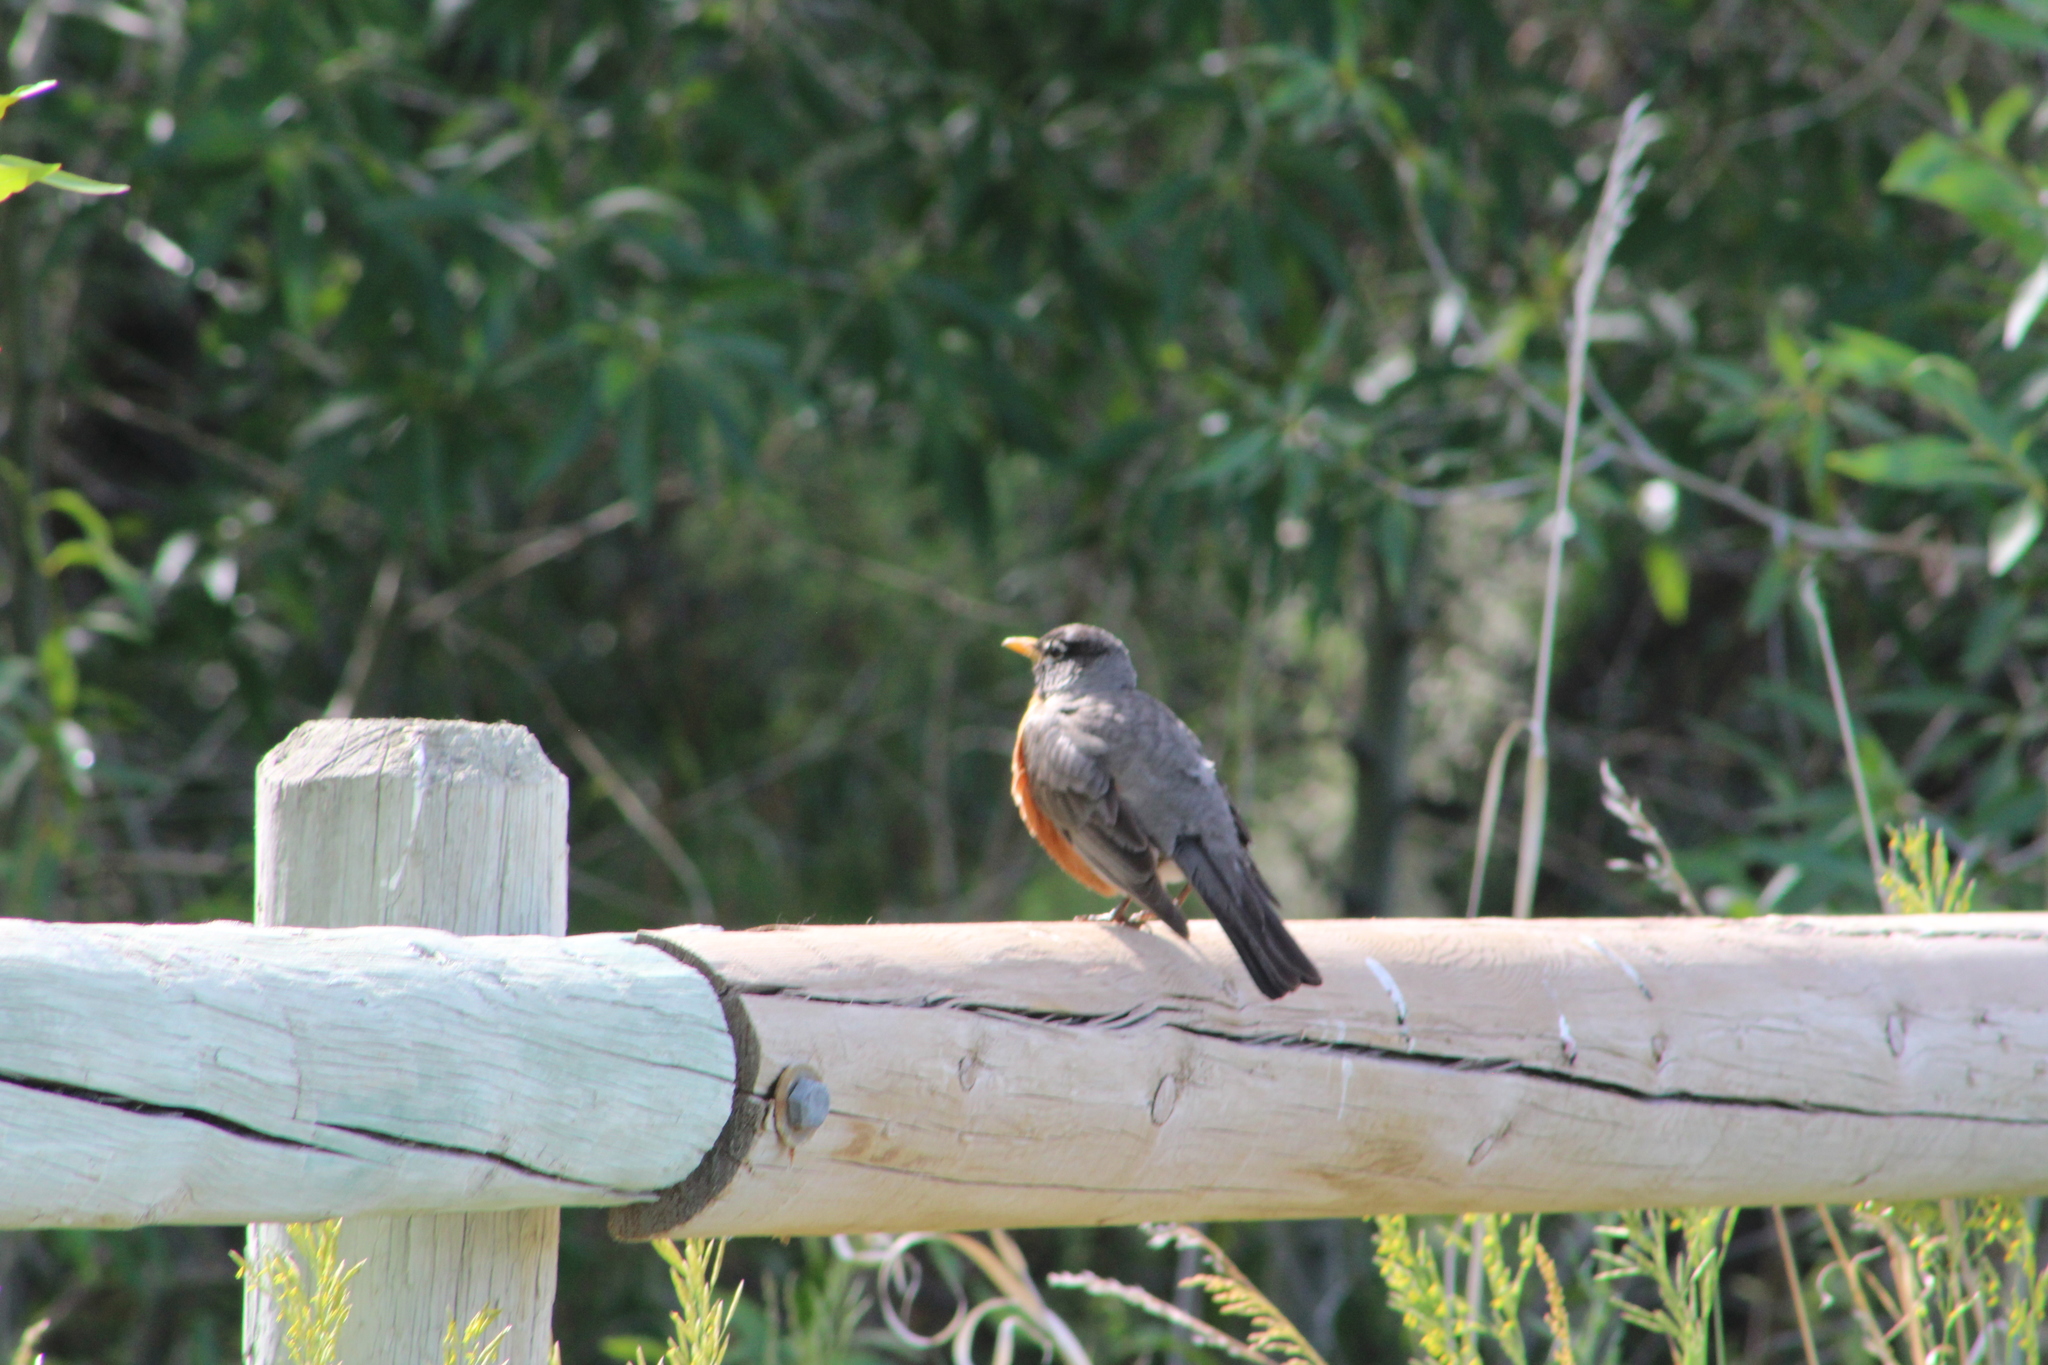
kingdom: Animalia
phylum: Chordata
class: Aves
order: Passeriformes
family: Turdidae
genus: Turdus
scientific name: Turdus migratorius
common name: American robin
